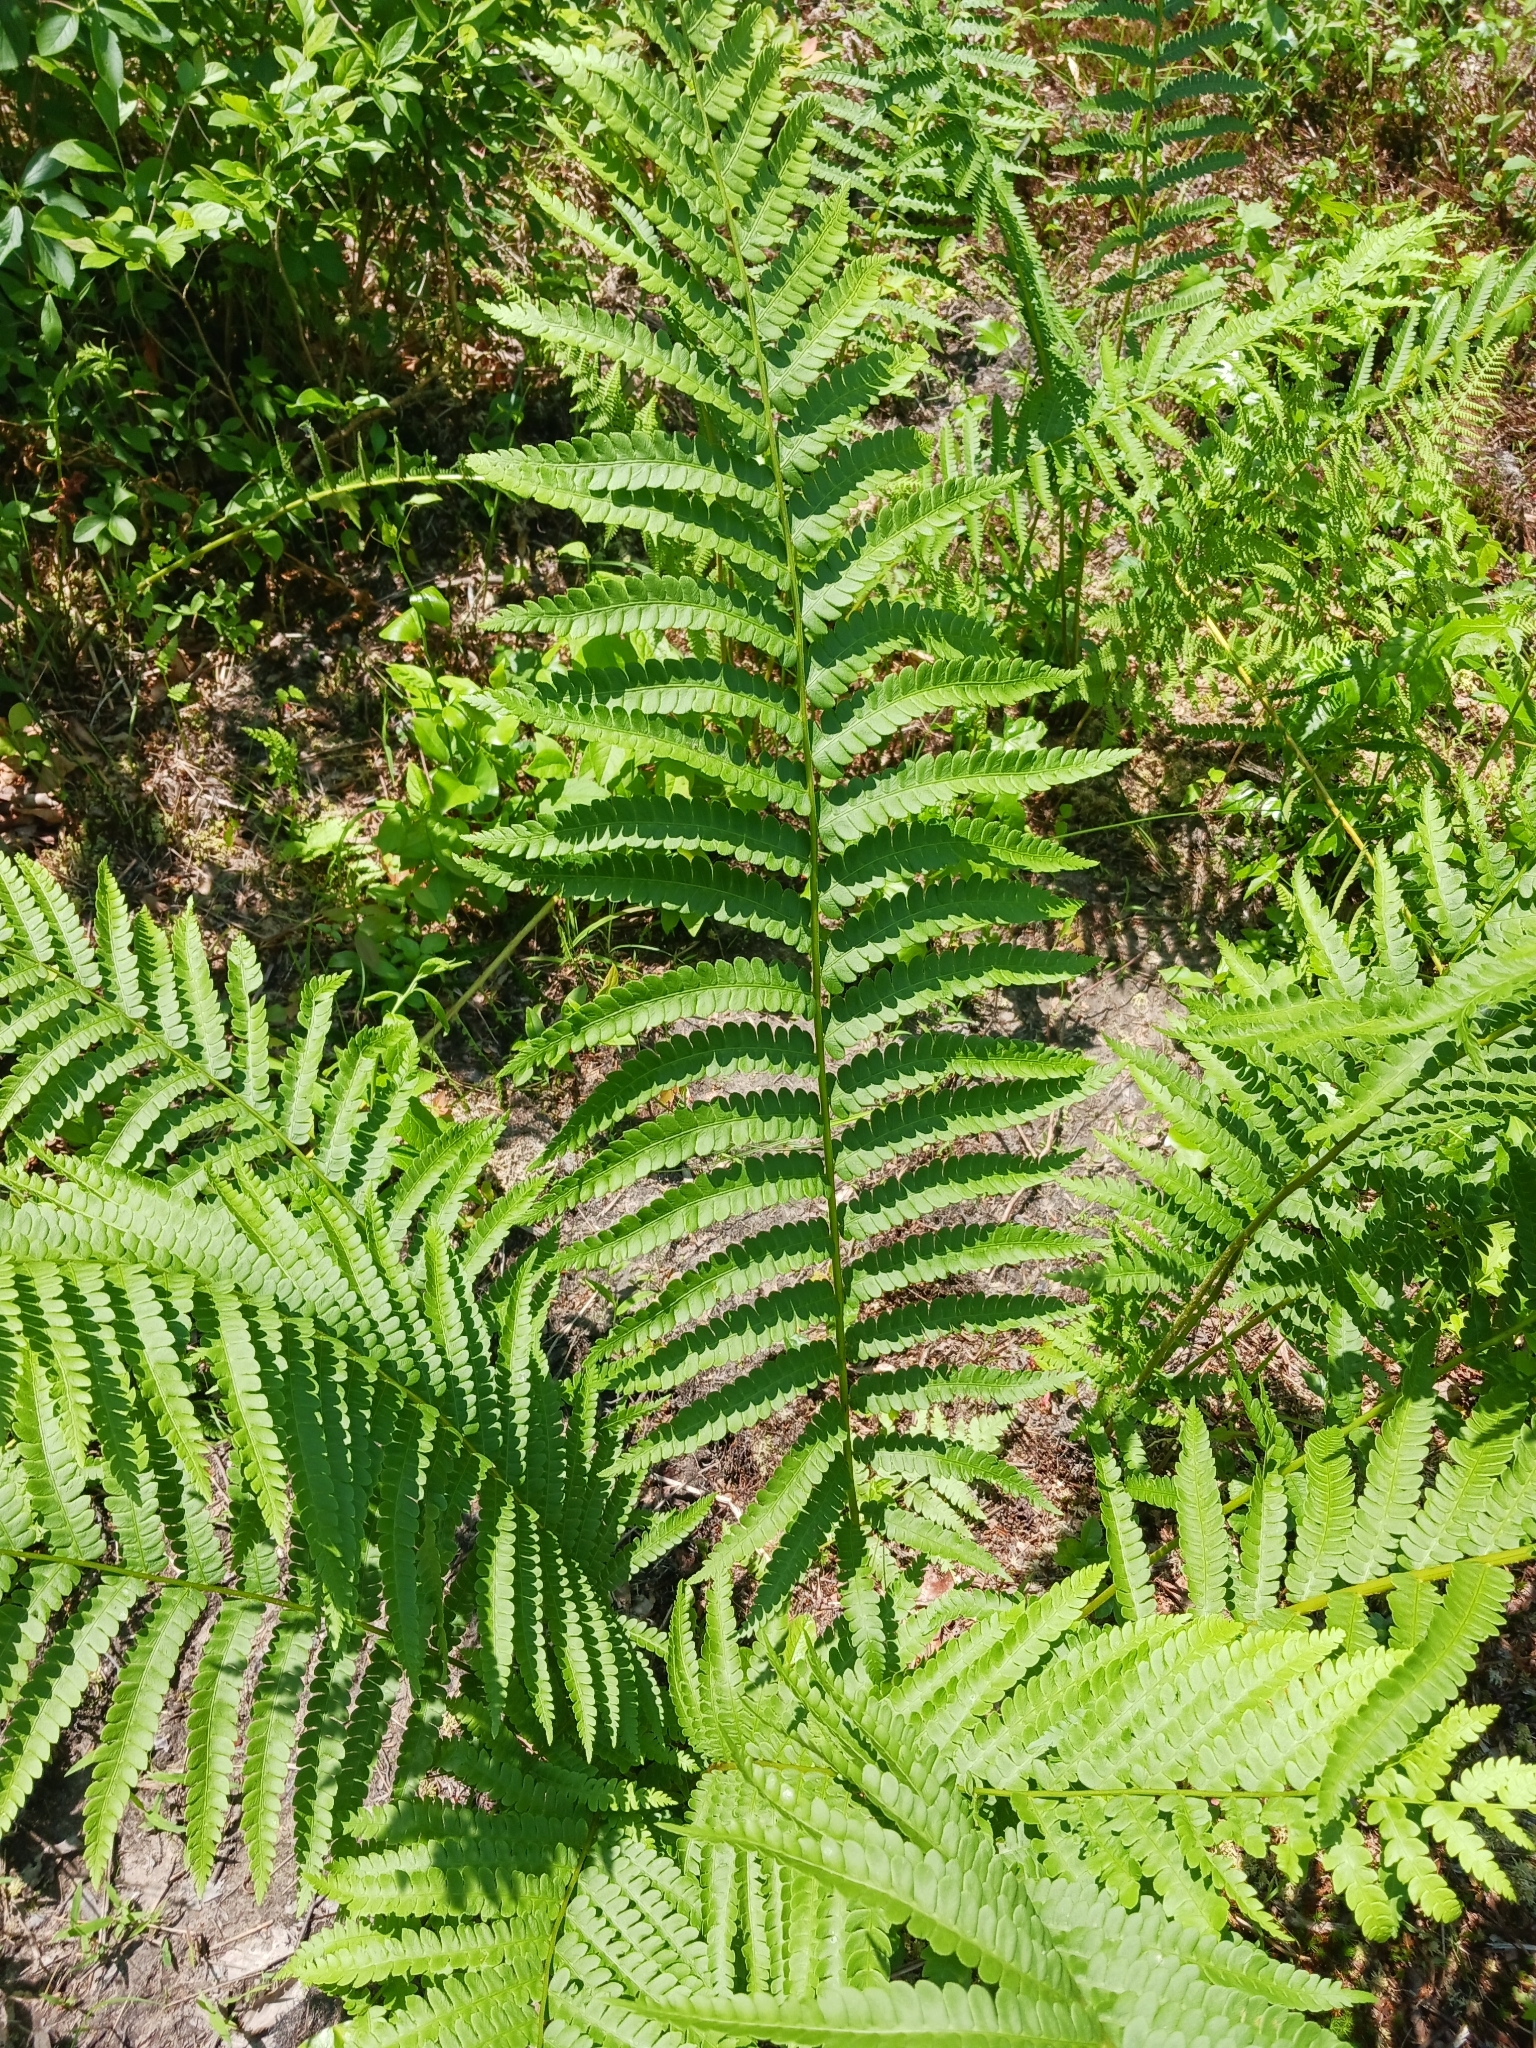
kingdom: Plantae
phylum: Tracheophyta
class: Polypodiopsida
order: Osmundales
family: Osmundaceae
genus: Osmundastrum
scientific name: Osmundastrum cinnamomeum
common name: Cinnamon fern
